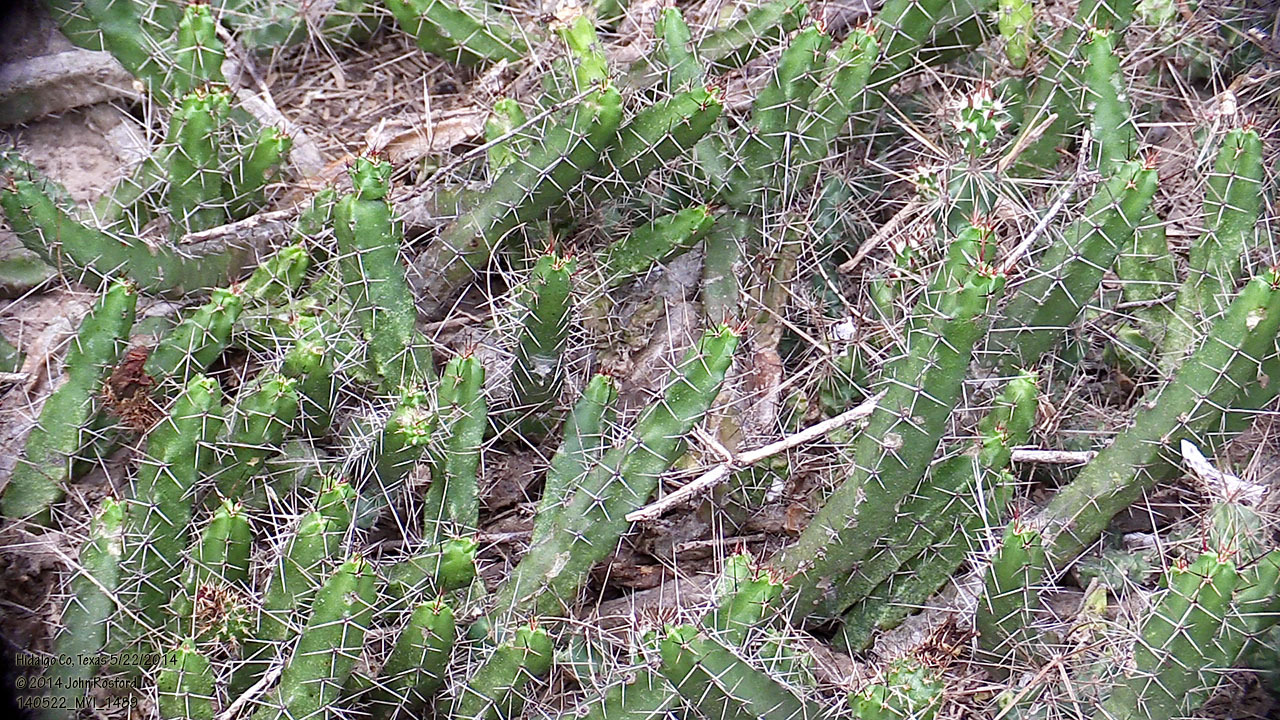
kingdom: Plantae
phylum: Tracheophyta
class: Magnoliopsida
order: Caryophyllales
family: Cactaceae
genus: Echinocereus
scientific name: Echinocereus pentalophus
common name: Ladyfinger cactus
